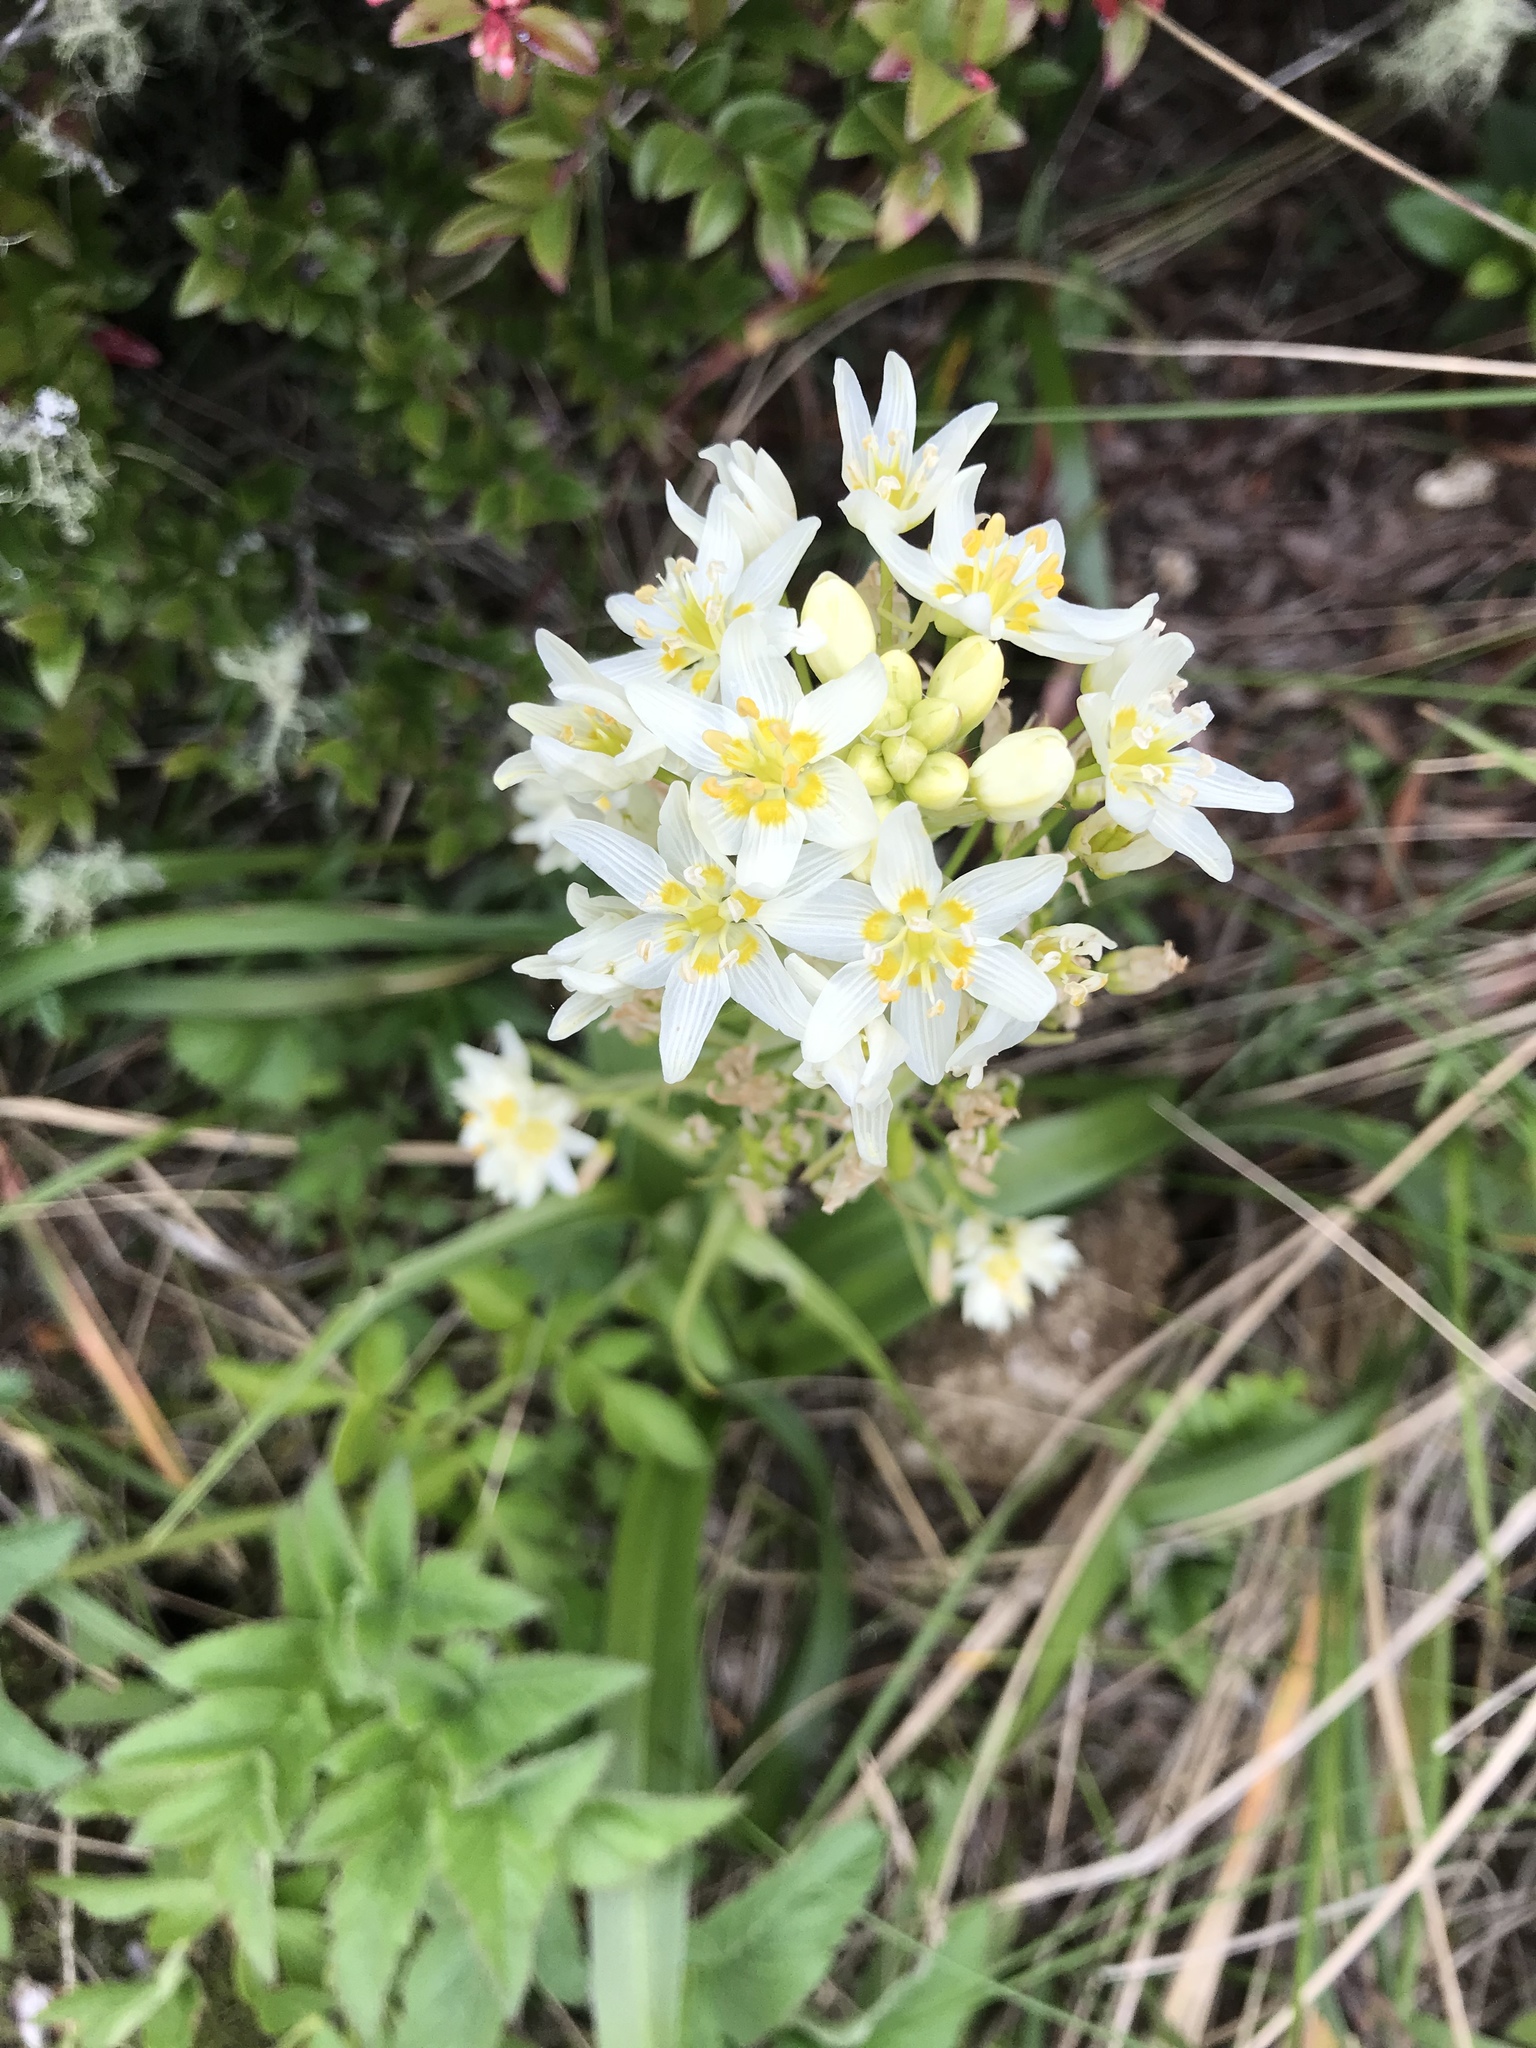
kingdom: Plantae
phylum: Tracheophyta
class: Liliopsida
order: Liliales
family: Melanthiaceae
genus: Toxicoscordion
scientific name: Toxicoscordion fremontii
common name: Fremont's death camas
